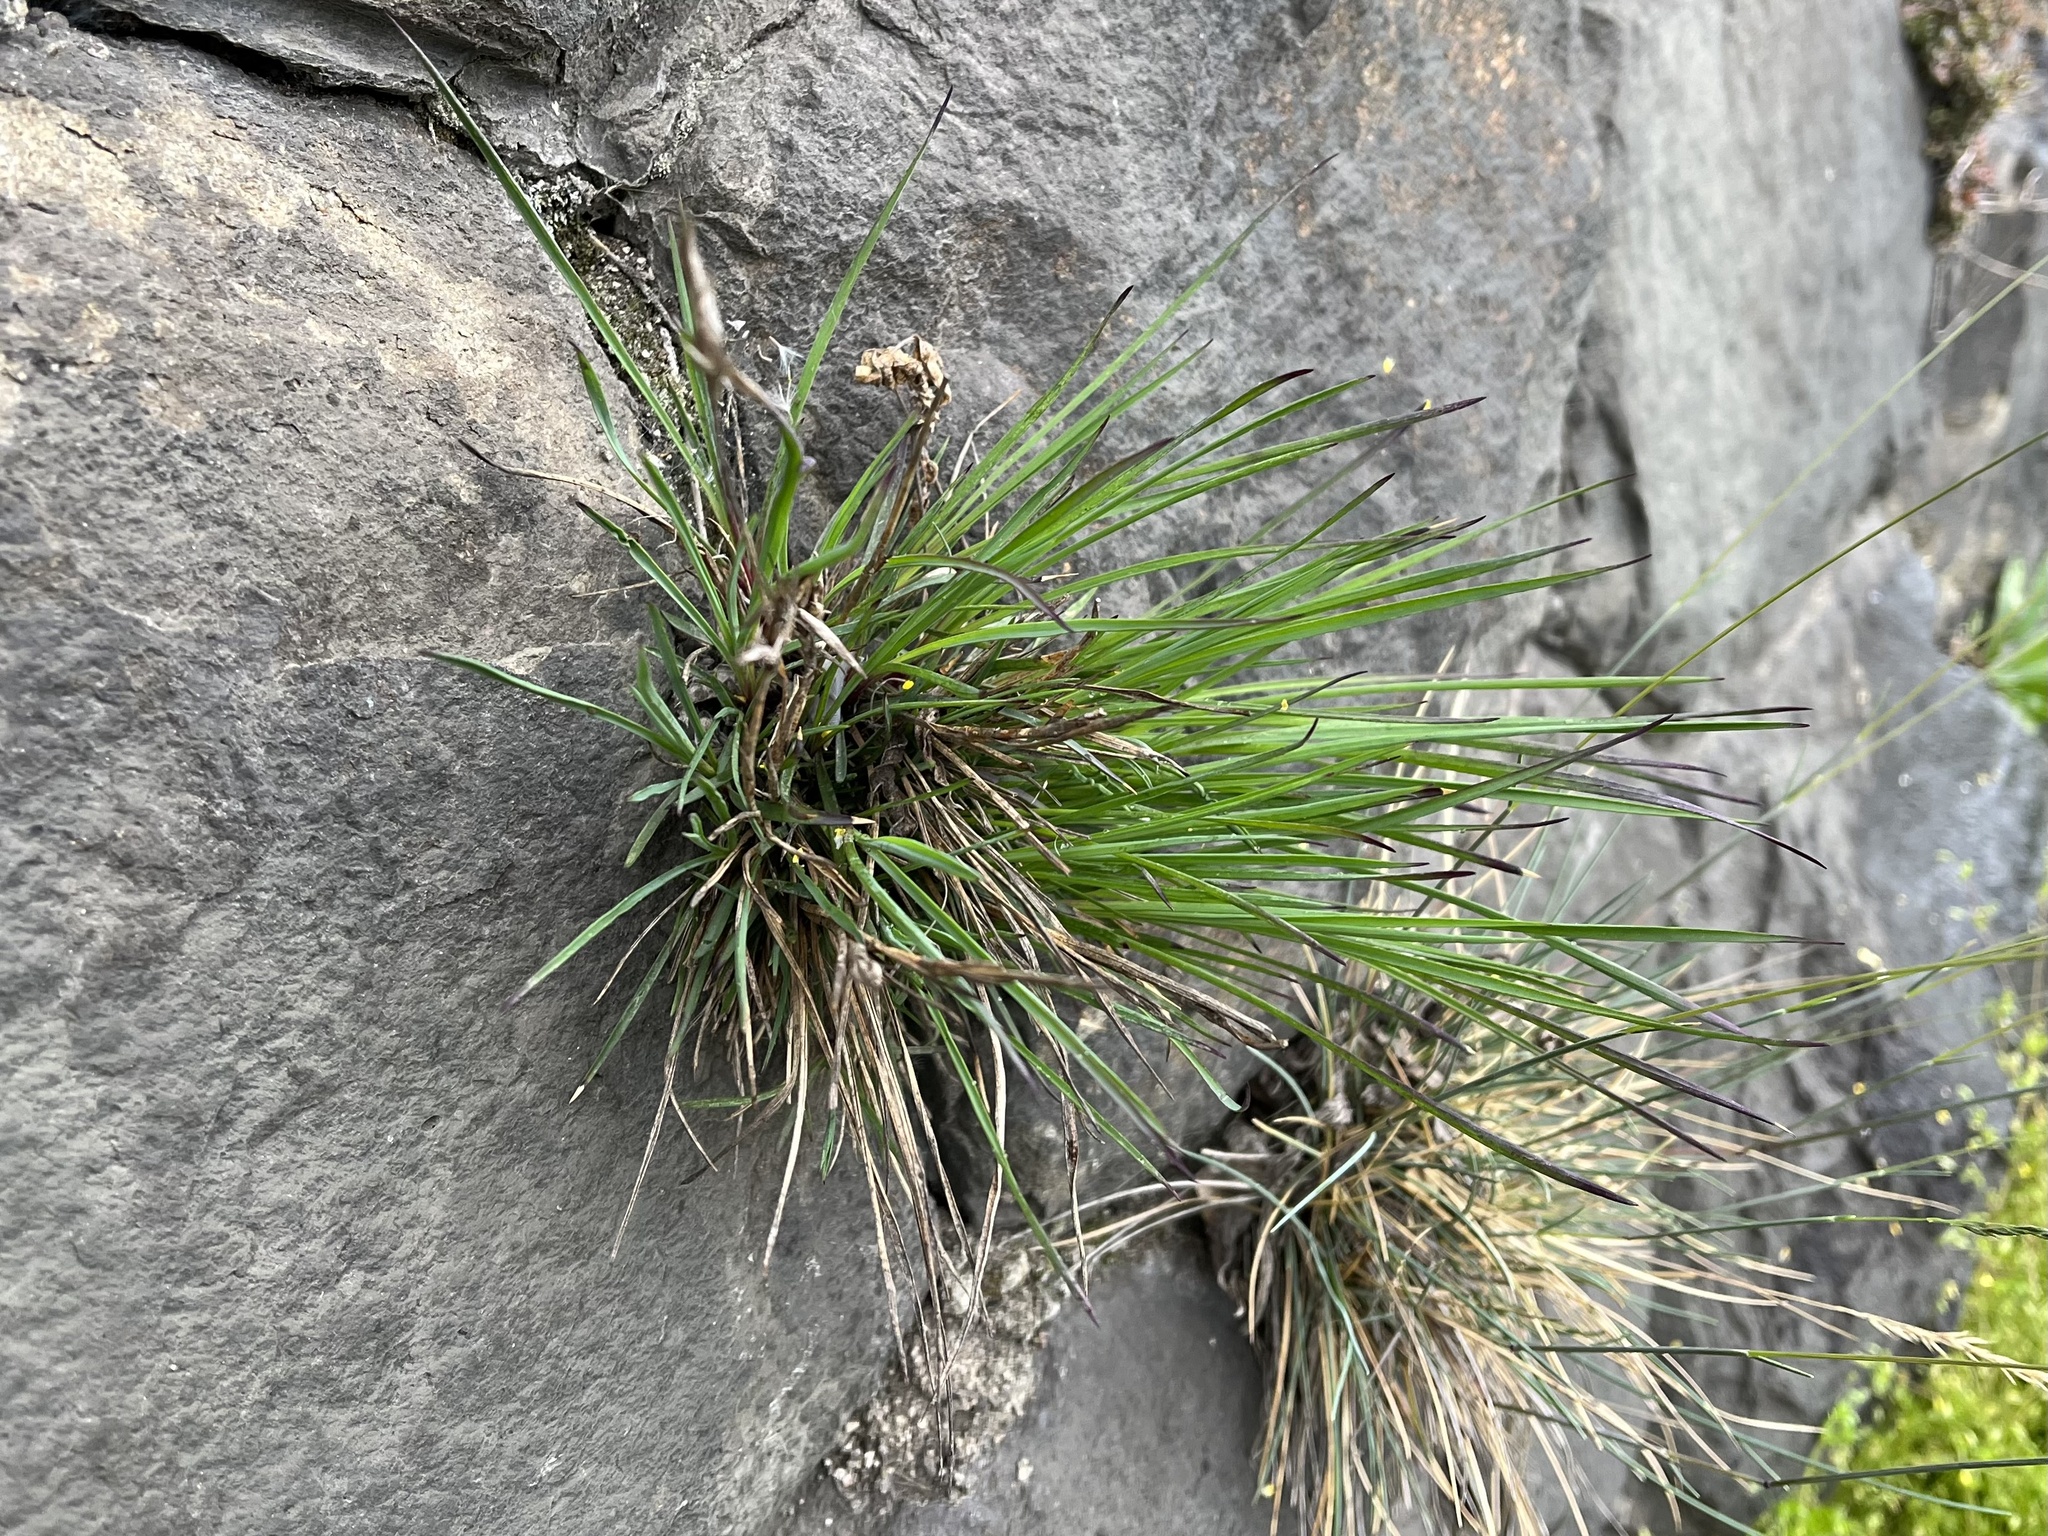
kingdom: Plantae
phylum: Tracheophyta
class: Magnoliopsida
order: Caryophyllales
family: Caryophyllaceae
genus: Dianthus
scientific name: Dianthus carthusianorum
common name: Carthusian pink
